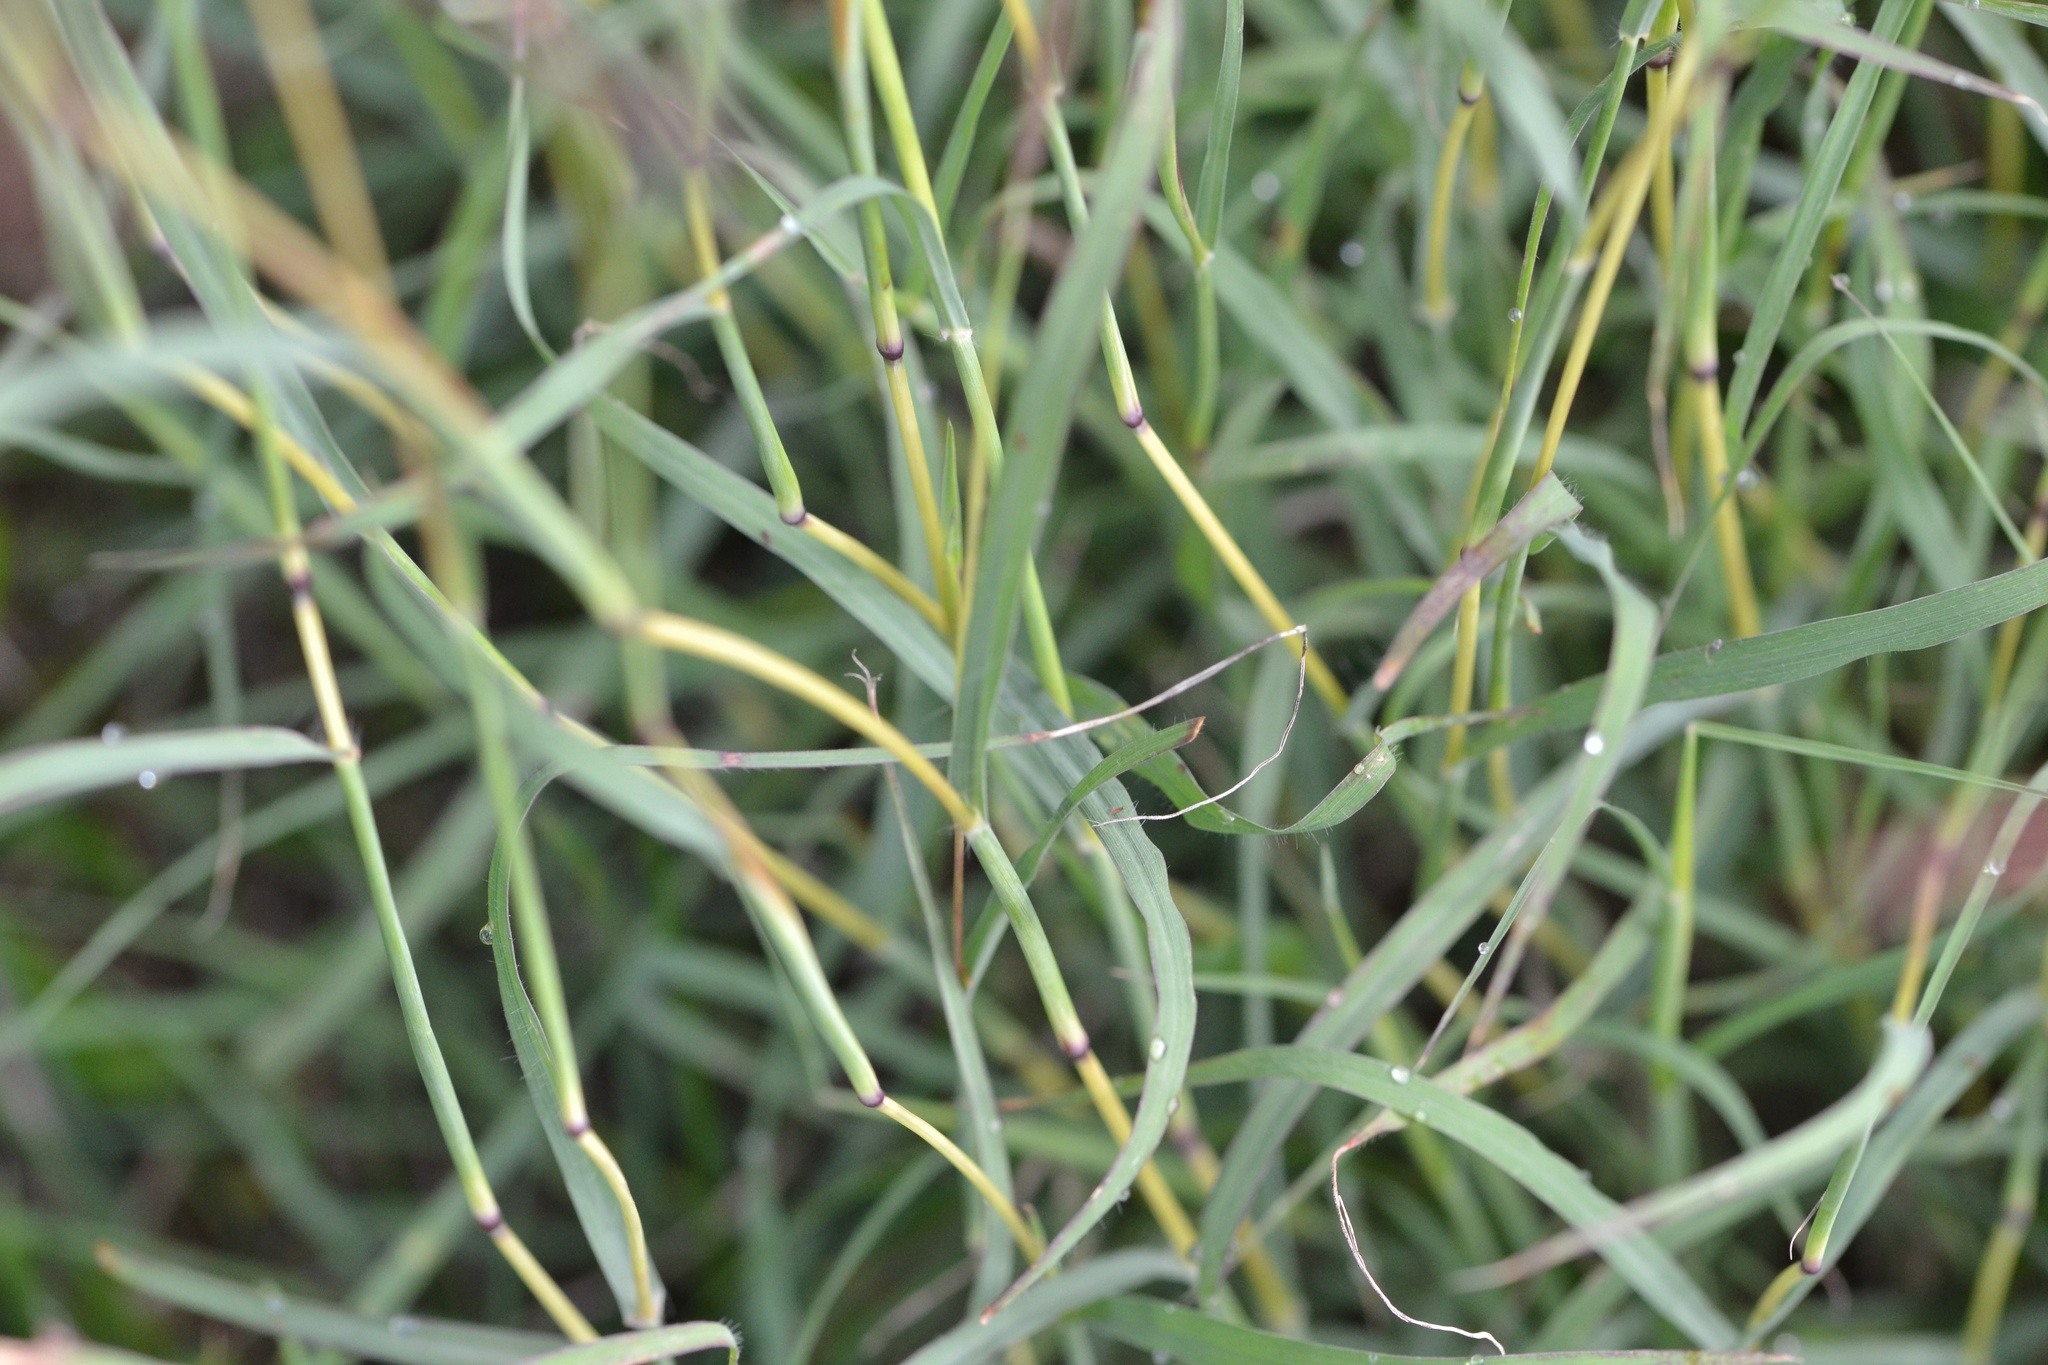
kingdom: Plantae
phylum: Tracheophyta
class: Liliopsida
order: Poales
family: Poaceae
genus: Bothriochloa
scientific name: Bothriochloa ischaemum
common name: Yellow bluestem
